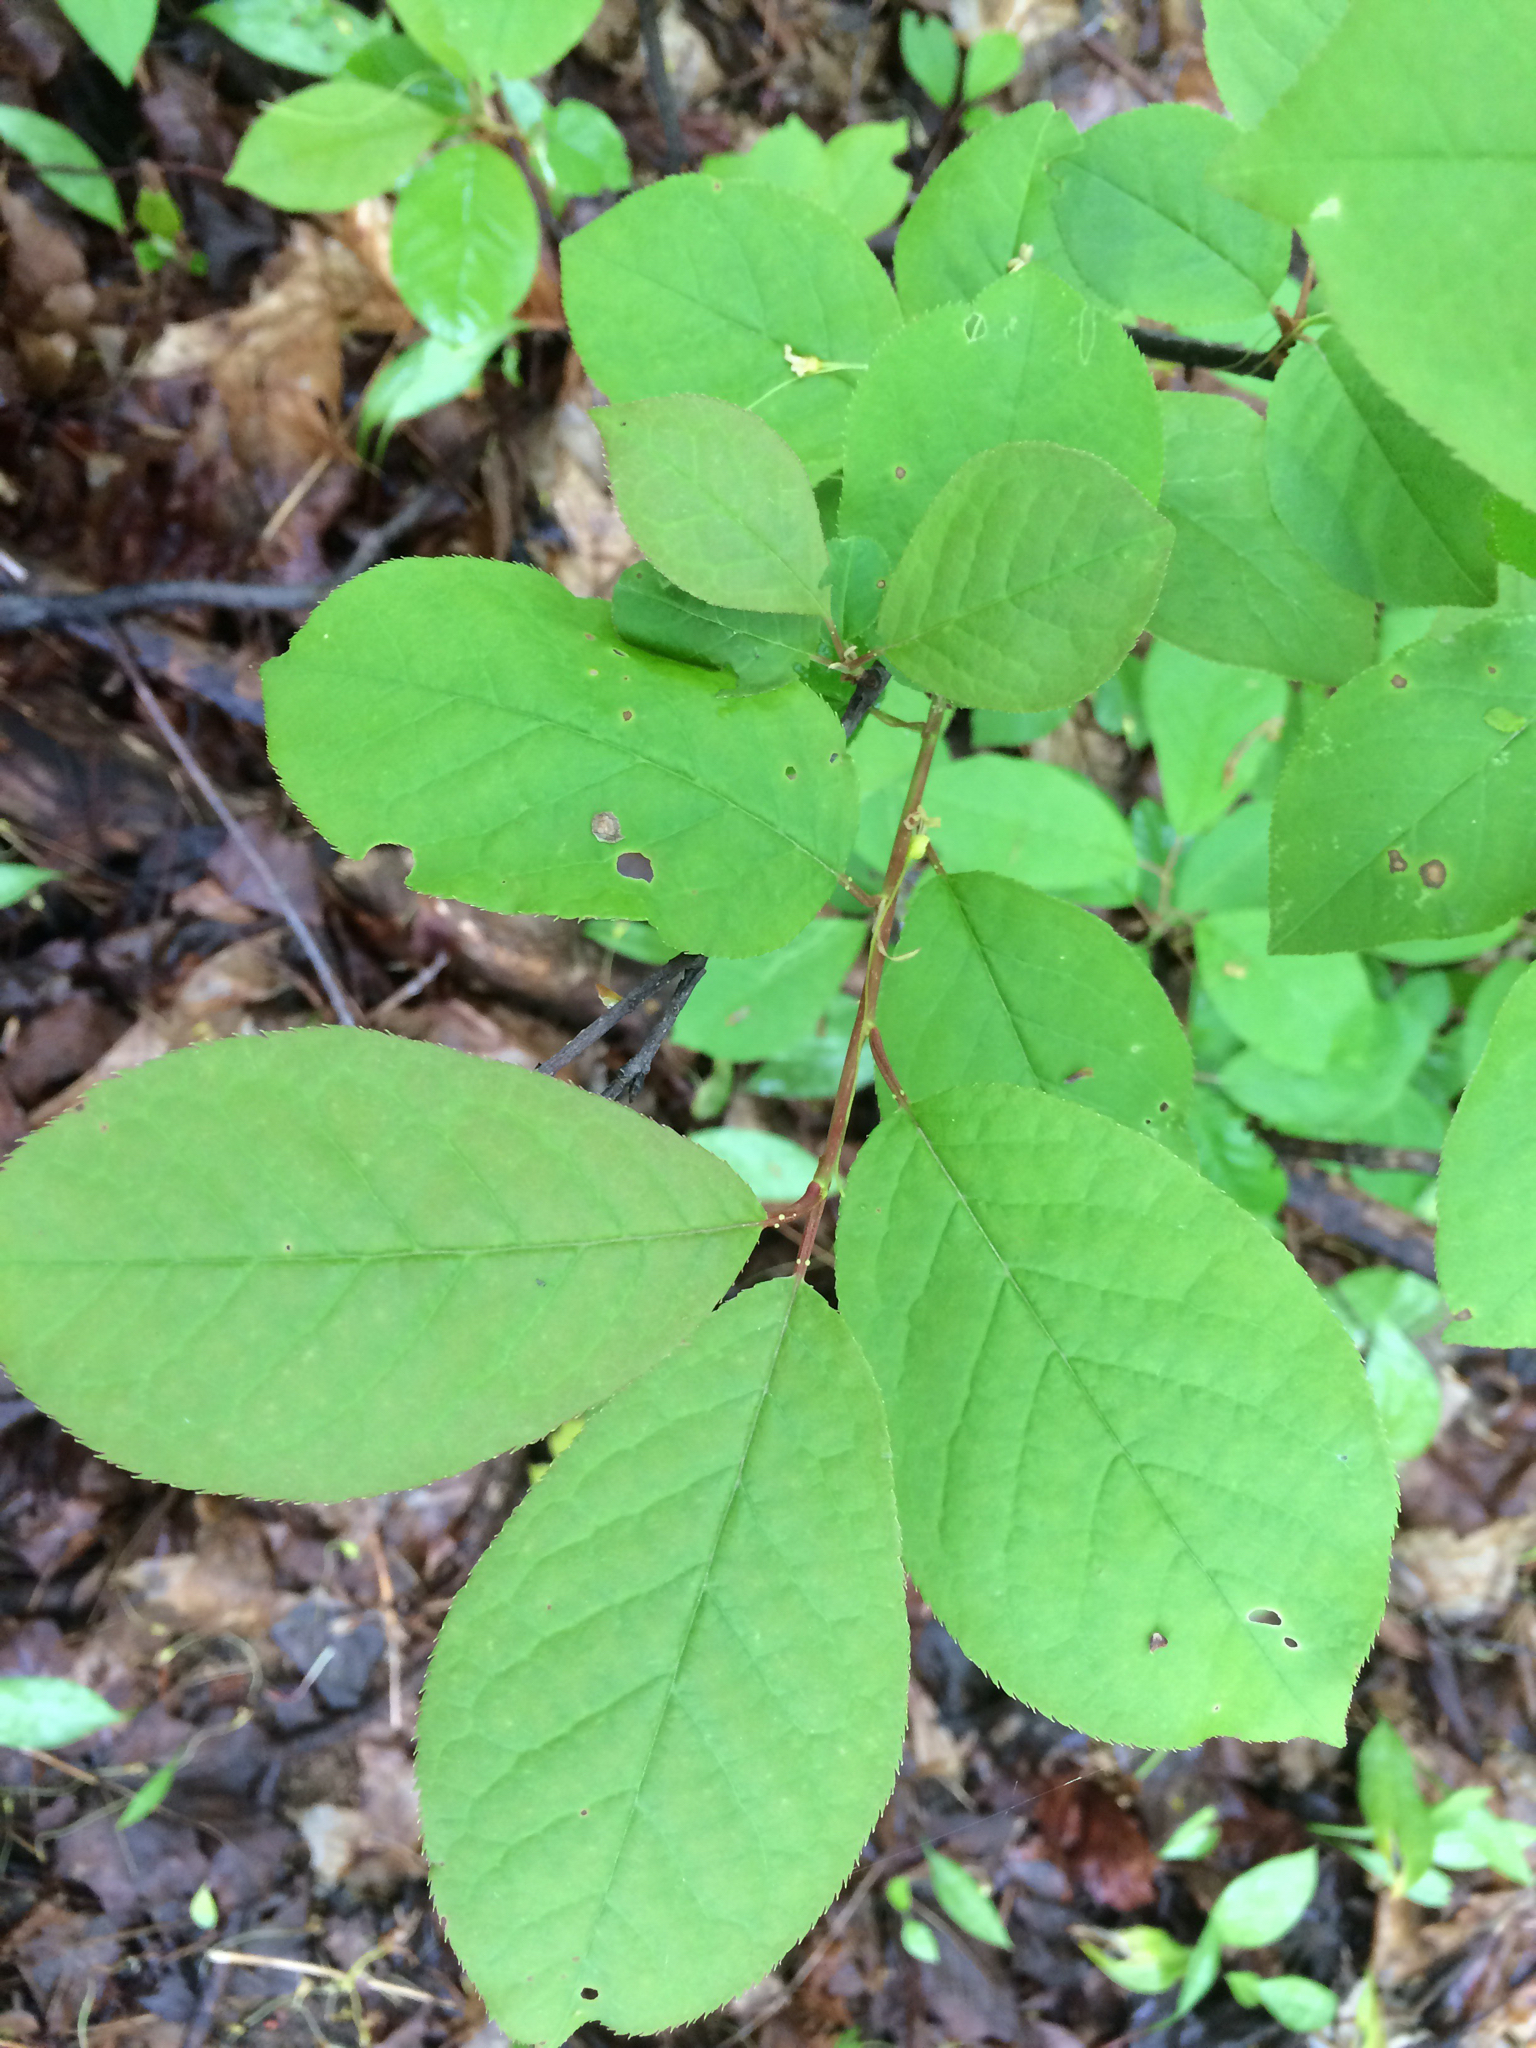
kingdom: Plantae
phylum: Tracheophyta
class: Magnoliopsida
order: Rosales
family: Rosaceae
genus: Prunus
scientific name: Prunus virginiana
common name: Chokecherry
